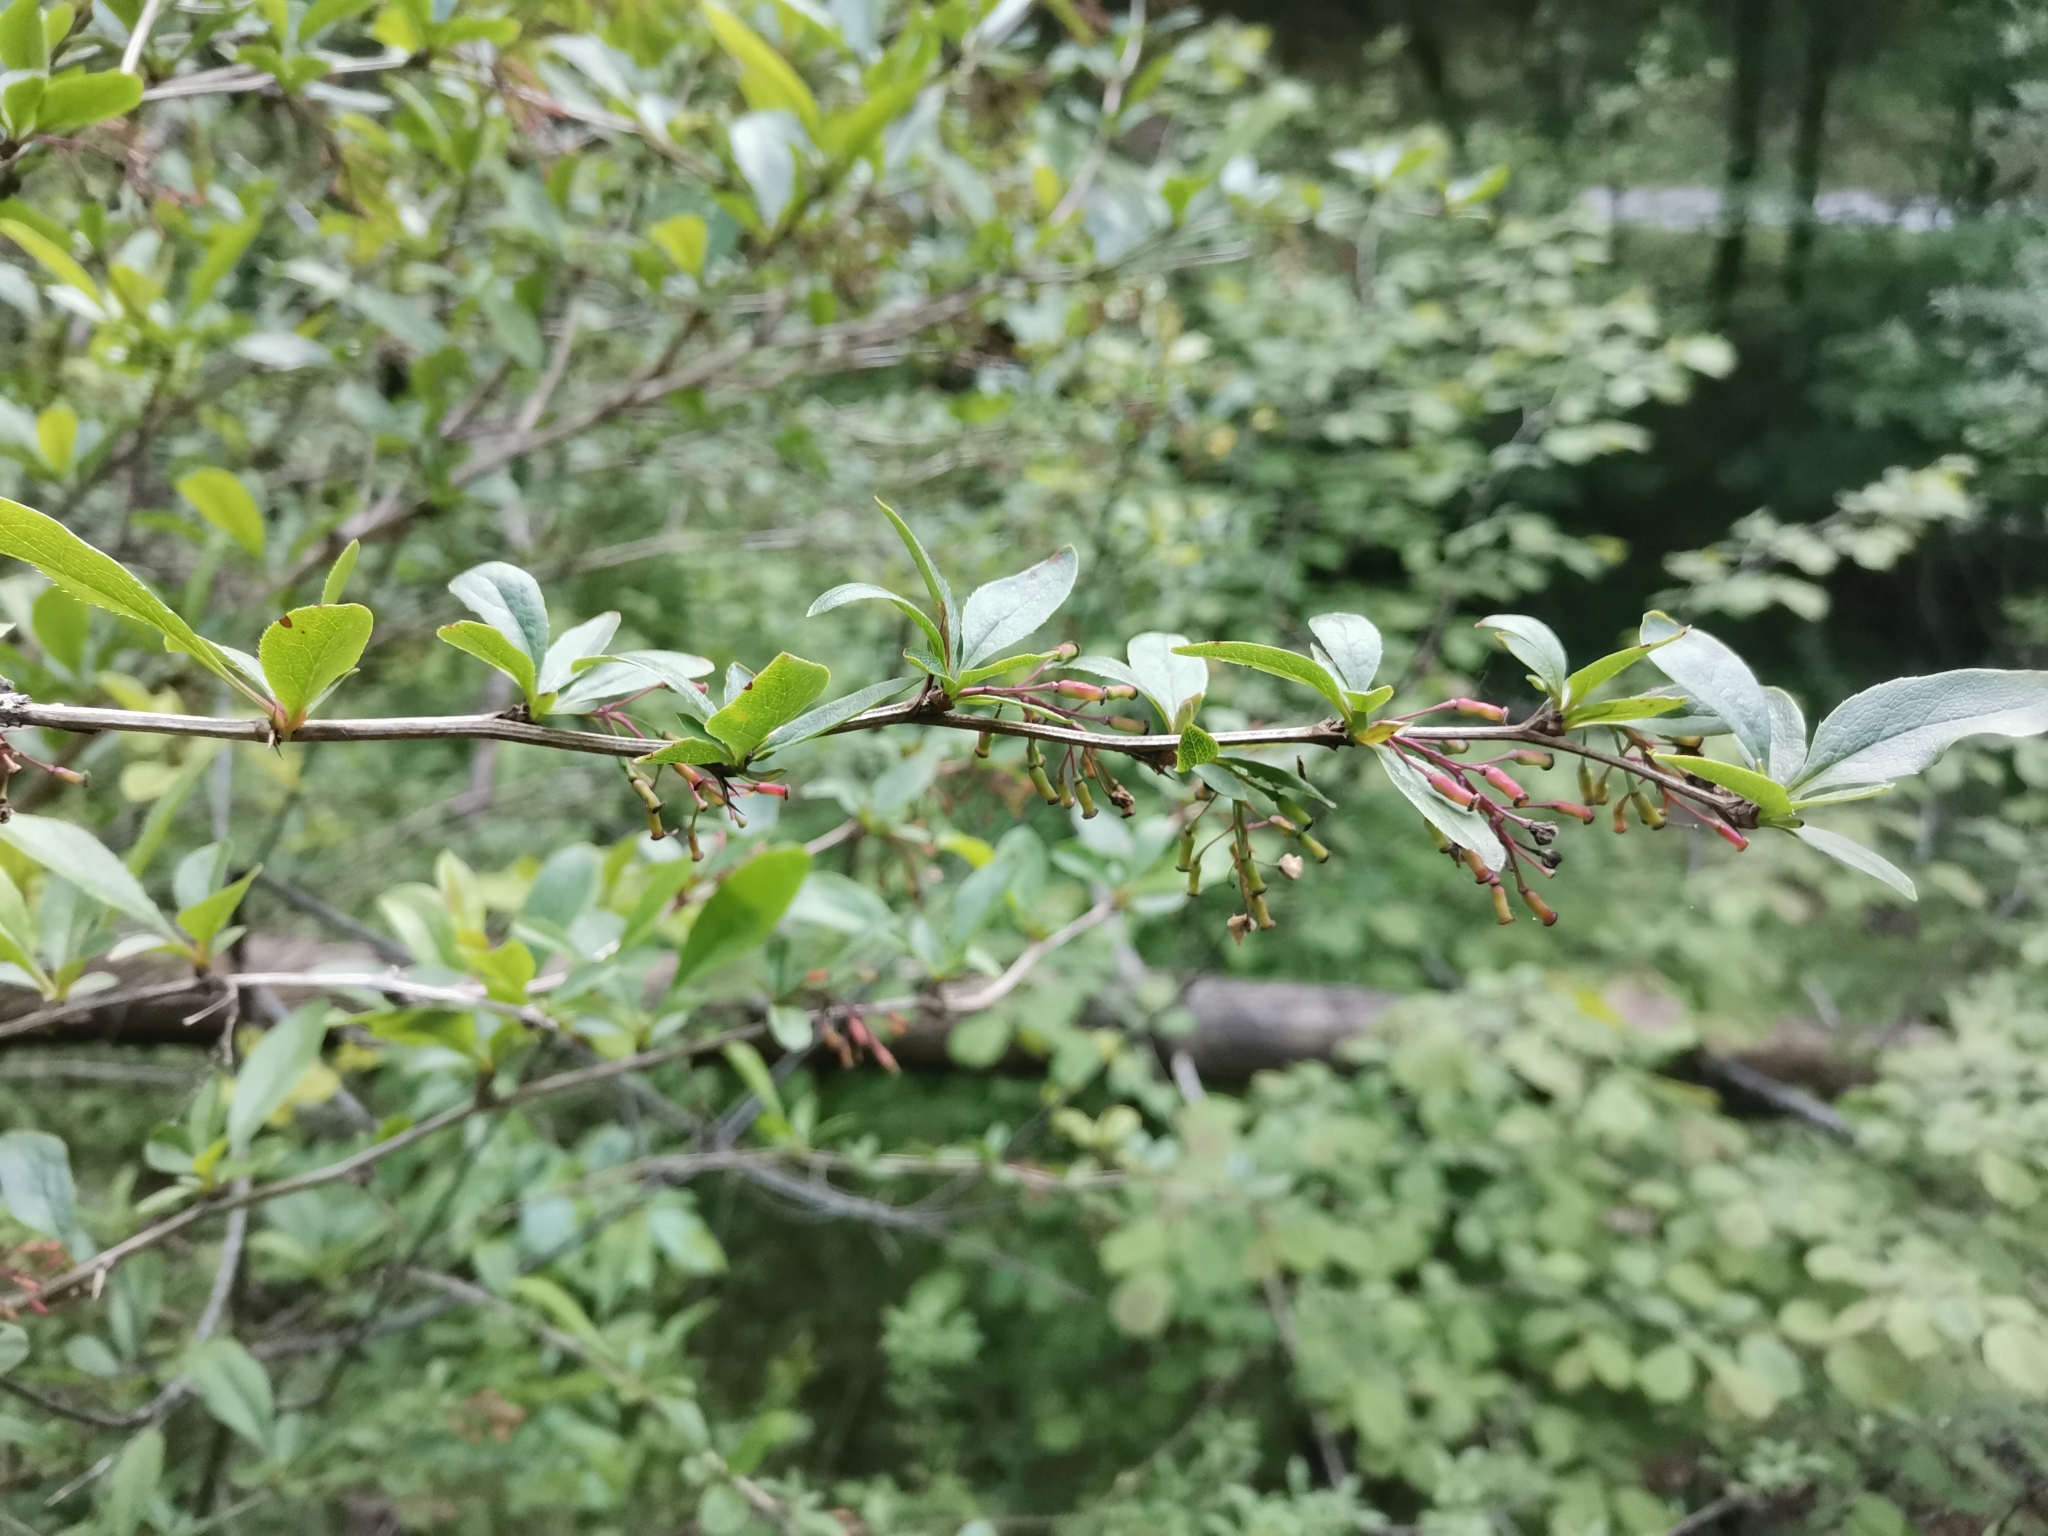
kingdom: Plantae
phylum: Tracheophyta
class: Magnoliopsida
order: Ranunculales
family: Berberidaceae
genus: Berberis
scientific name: Berberis vulgaris
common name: Barberry
